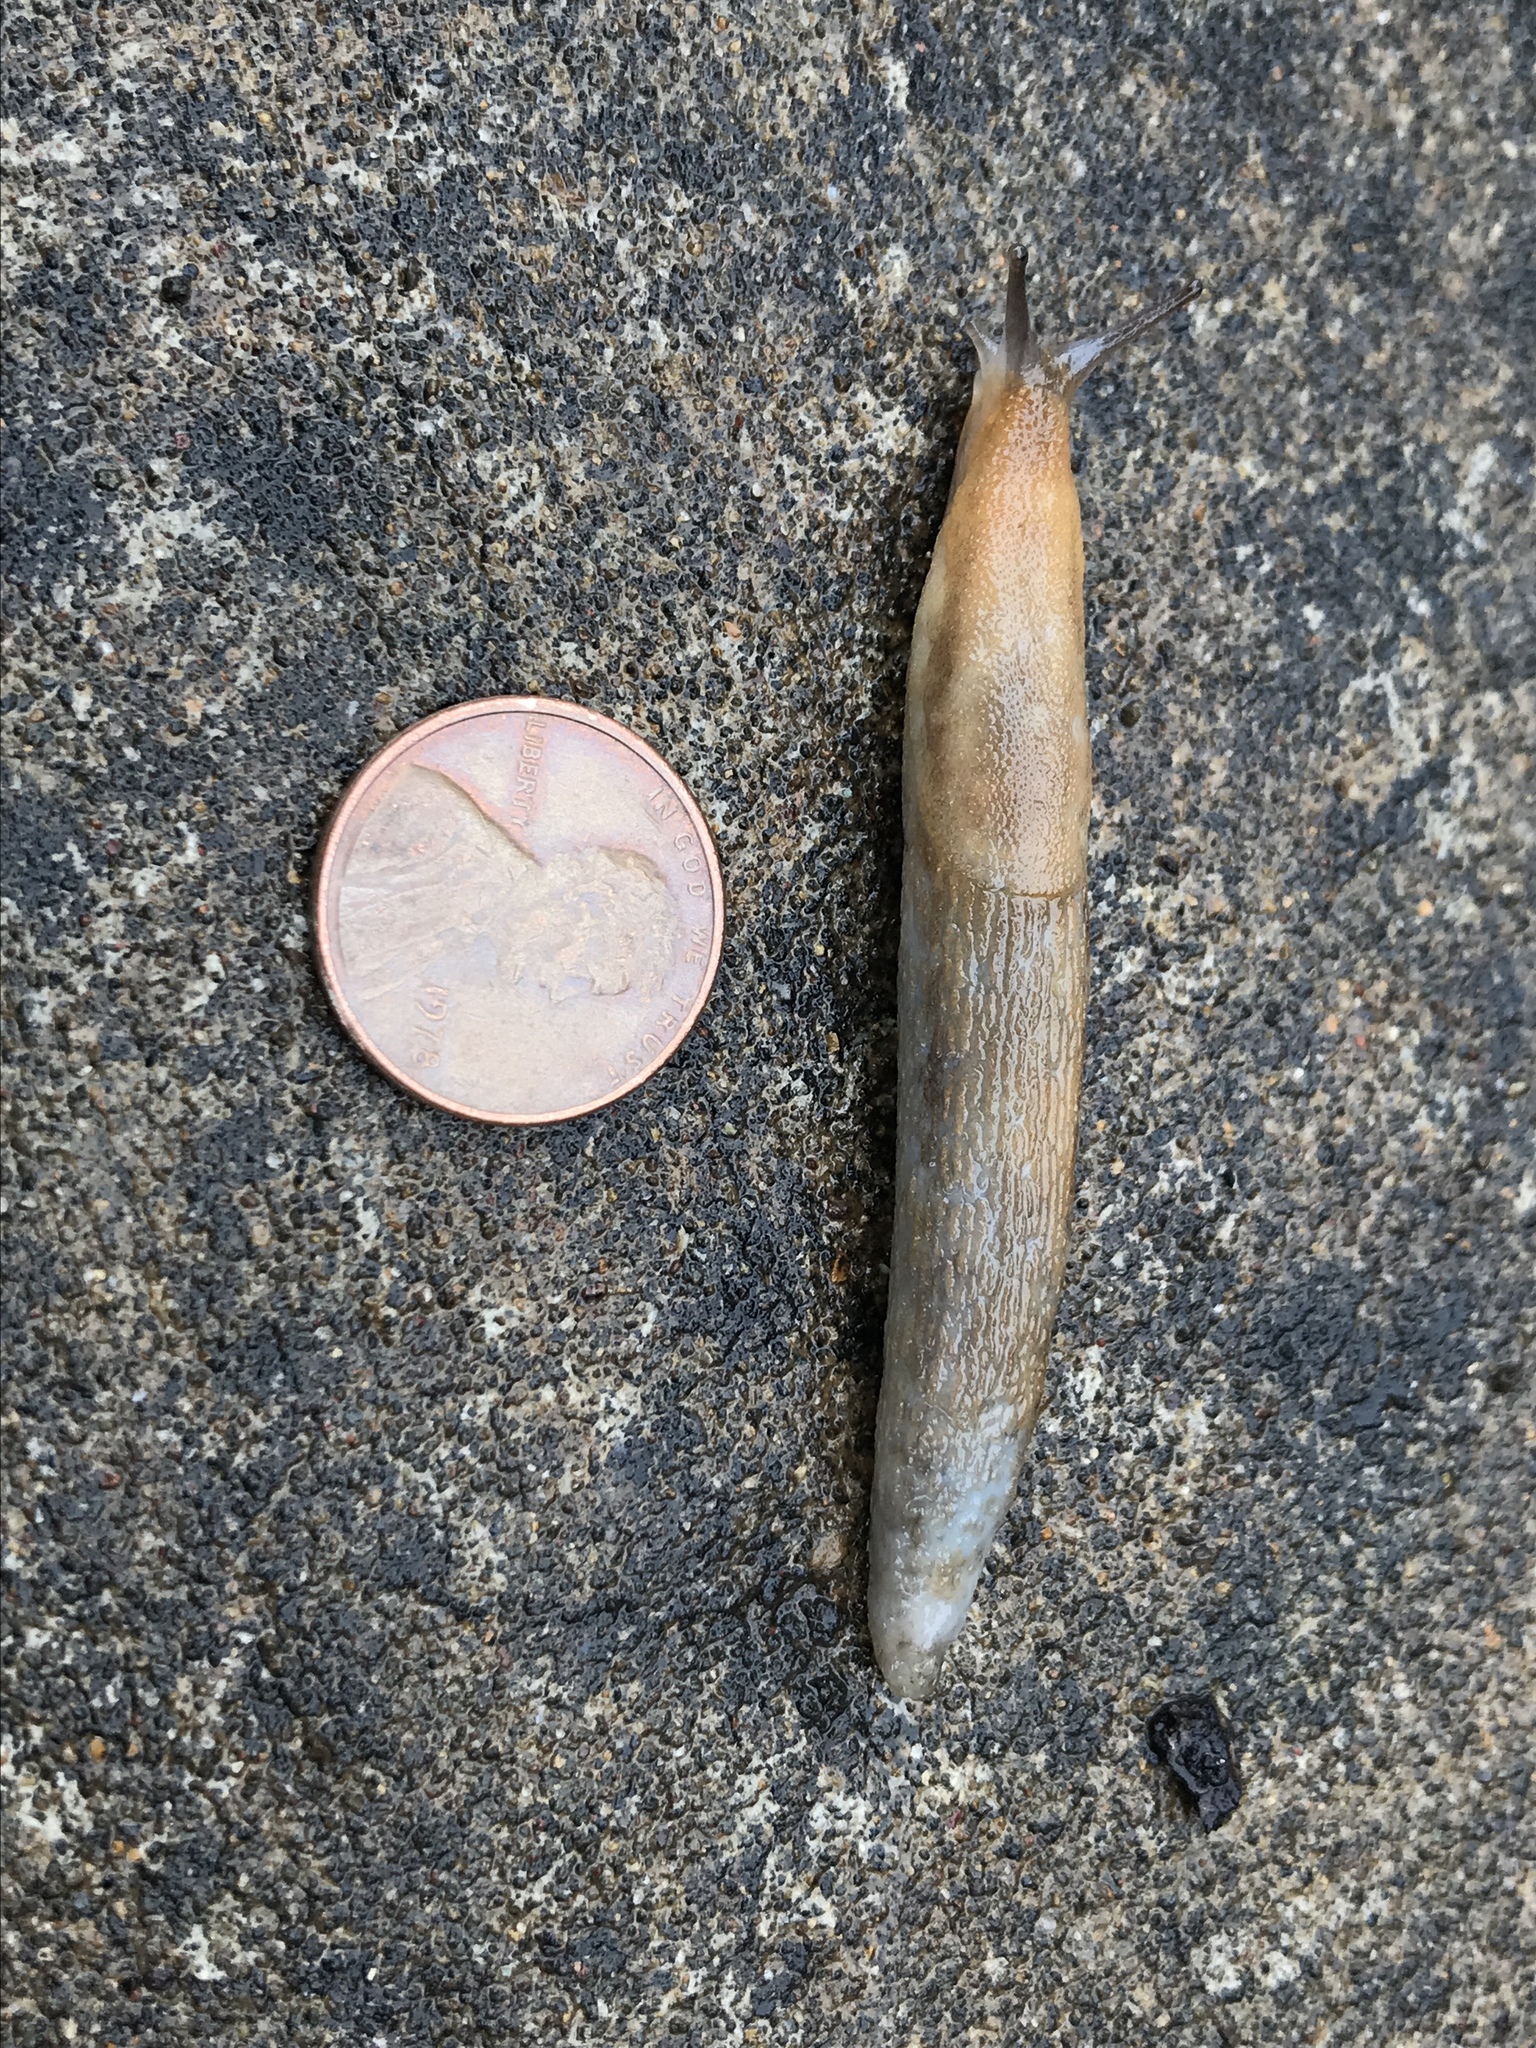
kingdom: Animalia
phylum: Mollusca
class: Gastropoda
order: Stylommatophora
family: Arionidae
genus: Mesarion
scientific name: Mesarion
